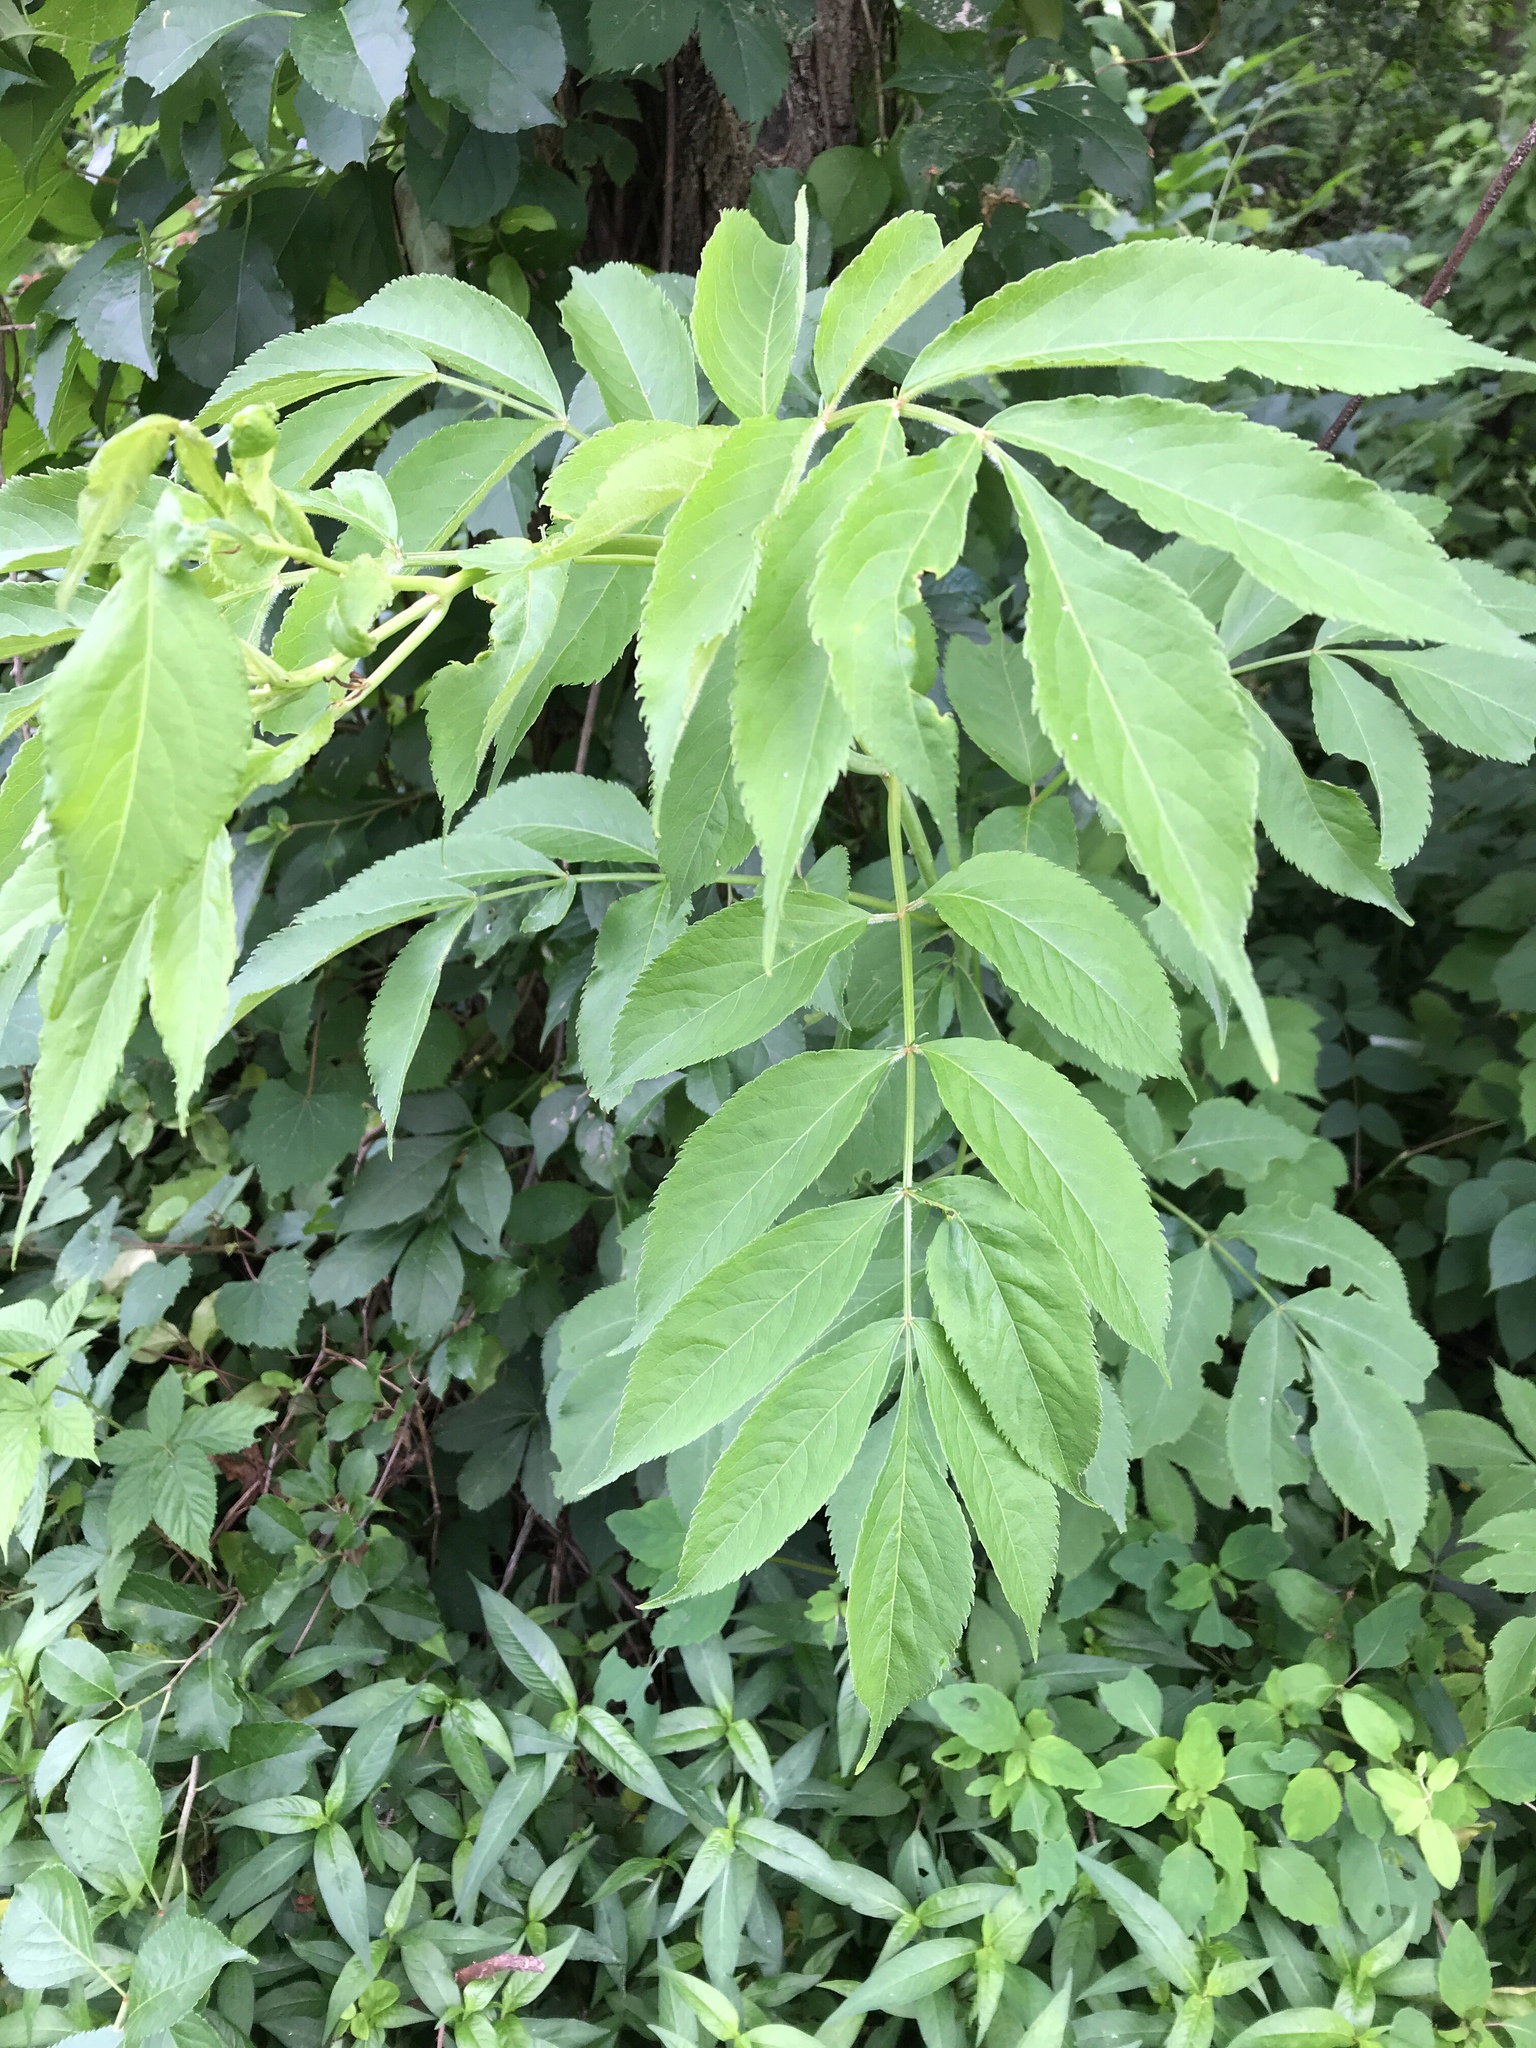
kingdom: Plantae
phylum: Tracheophyta
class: Magnoliopsida
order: Dipsacales
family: Viburnaceae
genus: Sambucus
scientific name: Sambucus canadensis
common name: American elder
